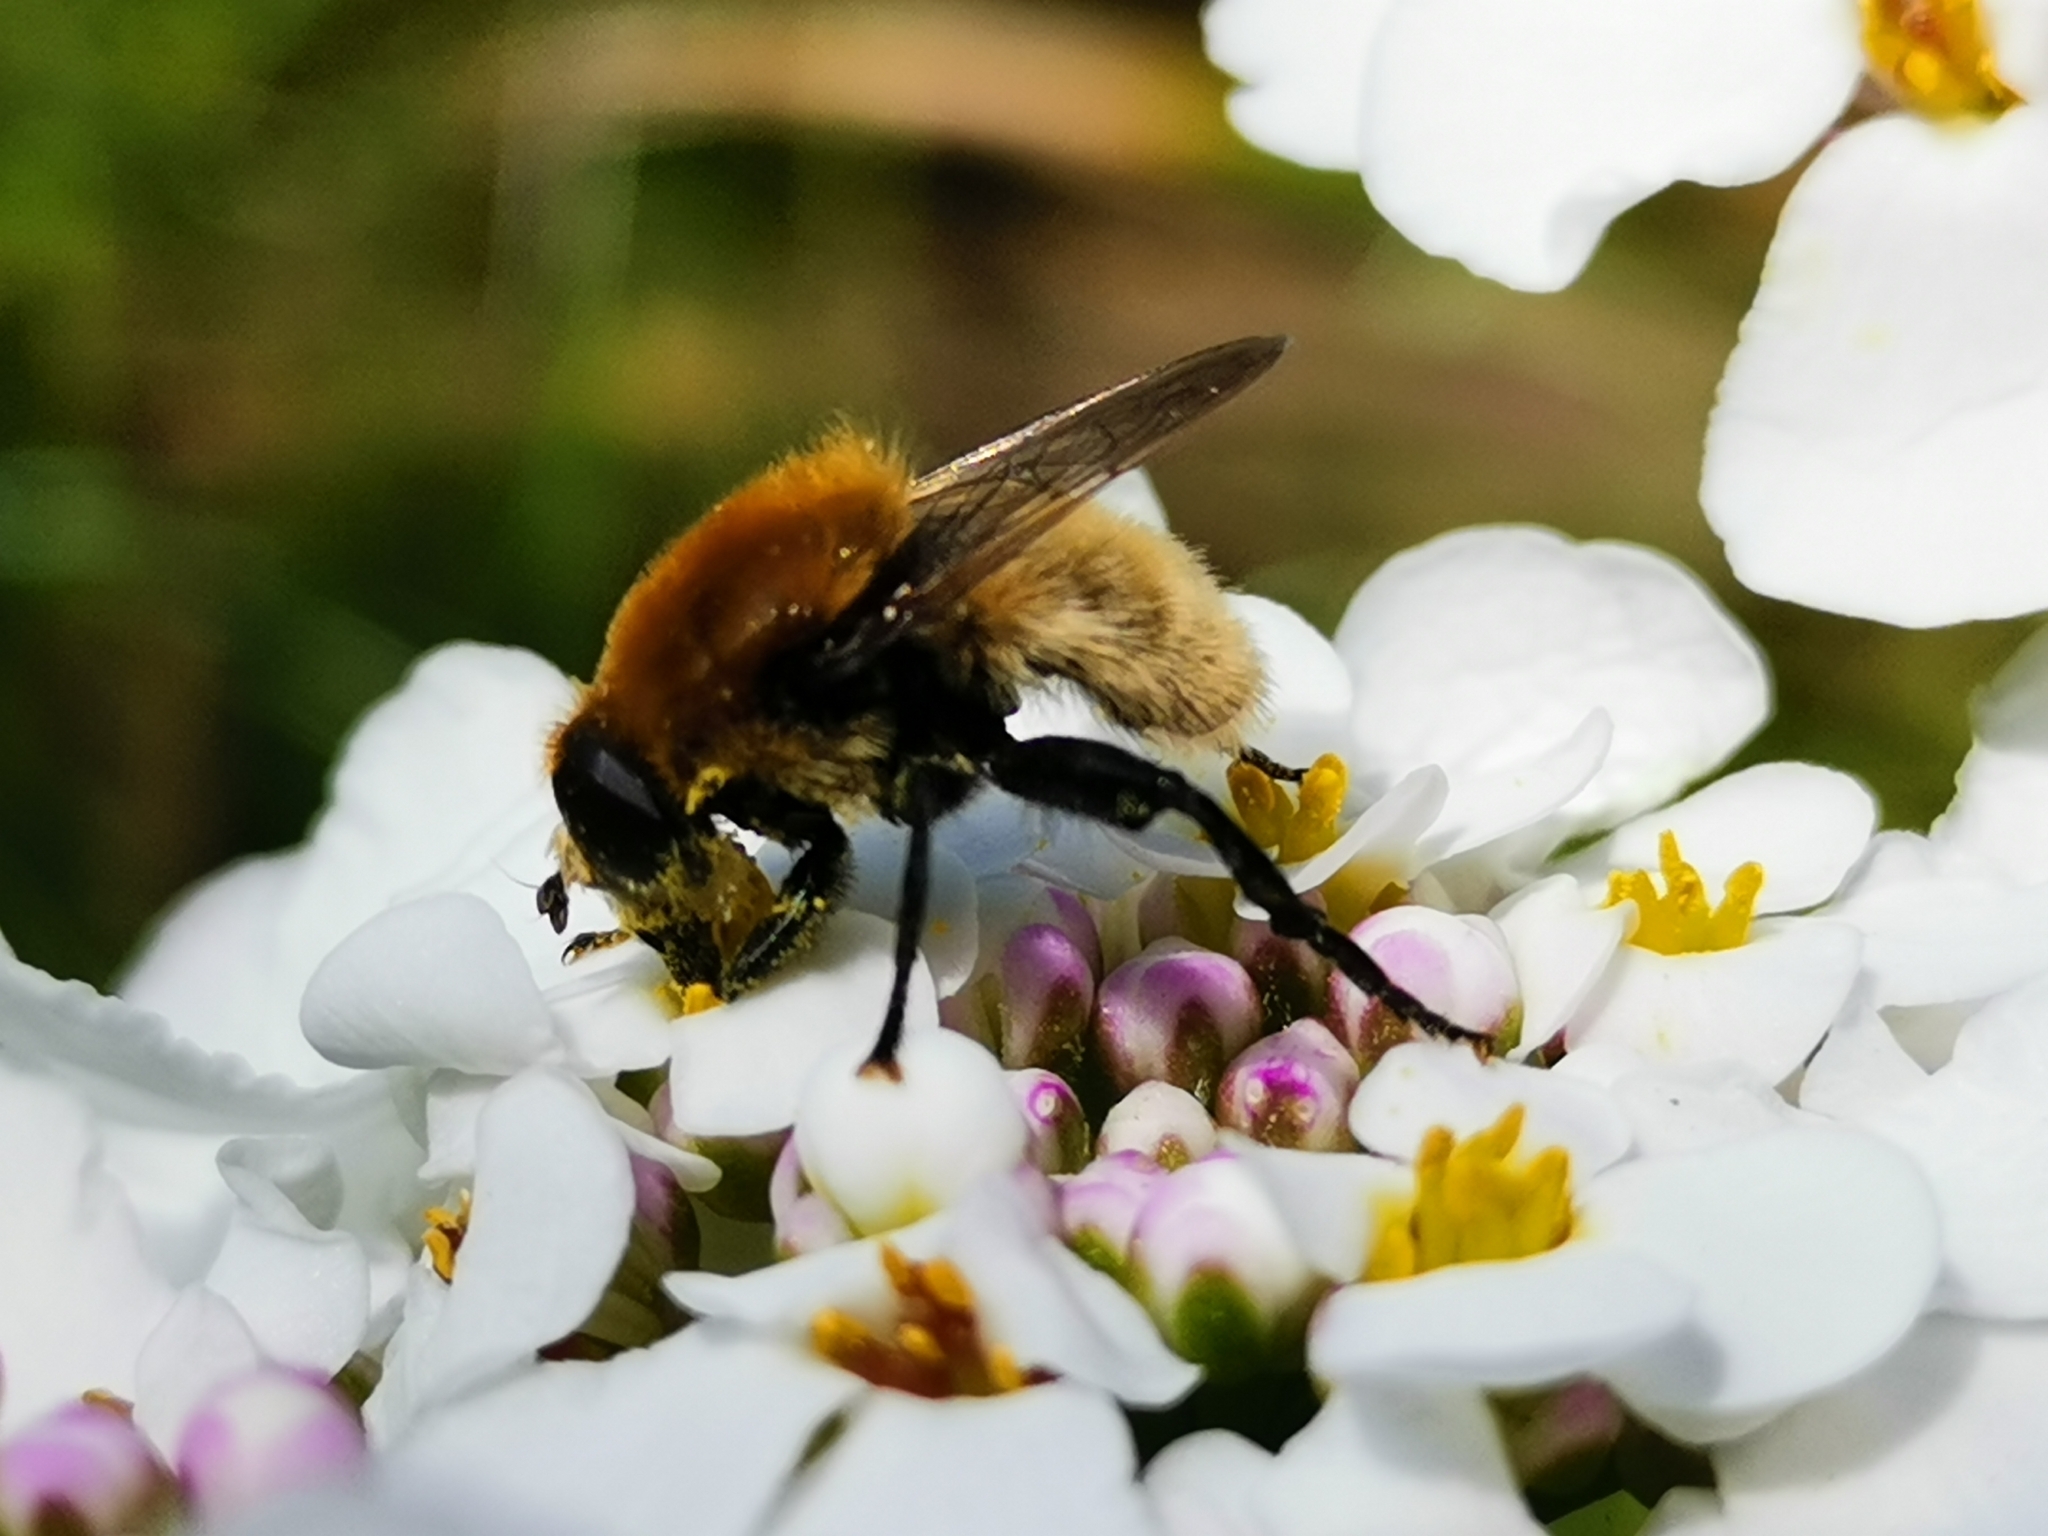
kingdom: Animalia
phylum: Arthropoda
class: Insecta
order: Diptera
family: Syrphidae
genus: Merodon
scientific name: Merodon equestris
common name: Greater bulb-fly
